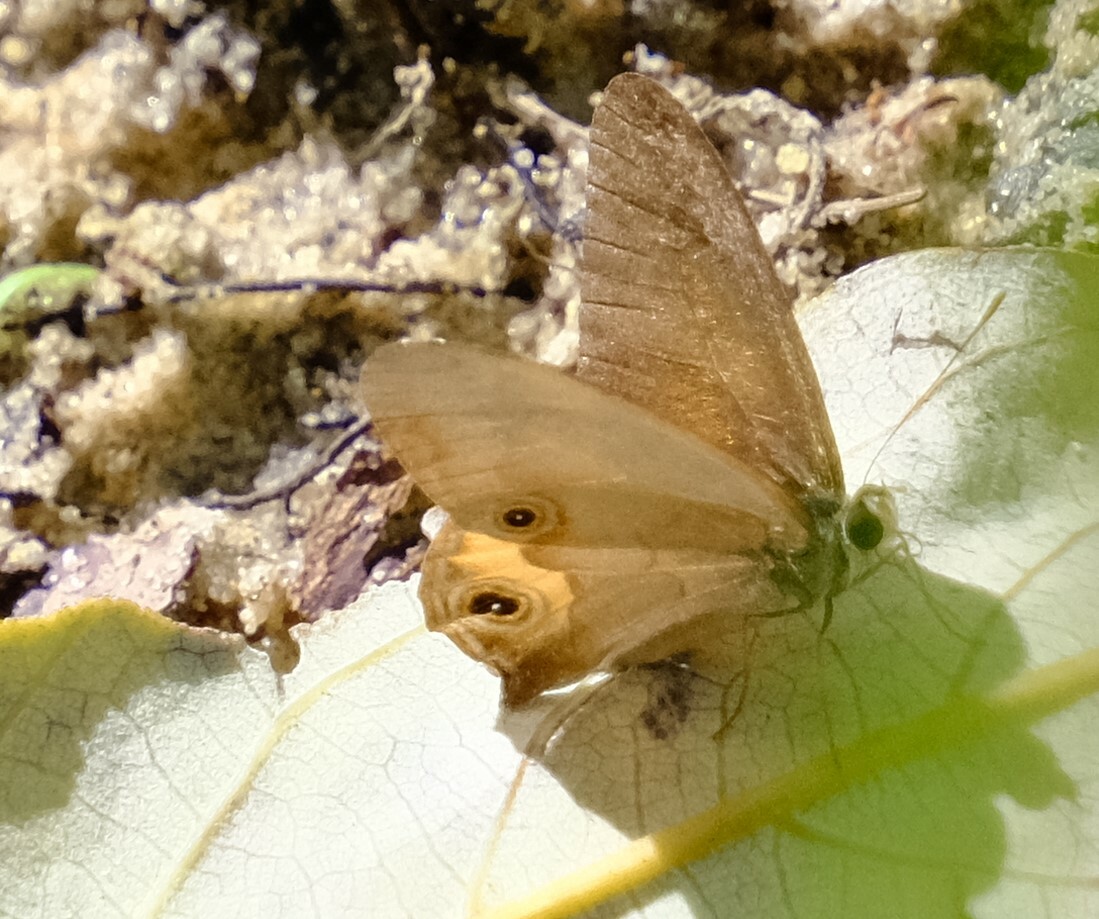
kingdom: Animalia
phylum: Arthropoda
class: Insecta
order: Lepidoptera
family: Nymphalidae
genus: Hypocysta
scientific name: Hypocysta metirius
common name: Brown ringlet
